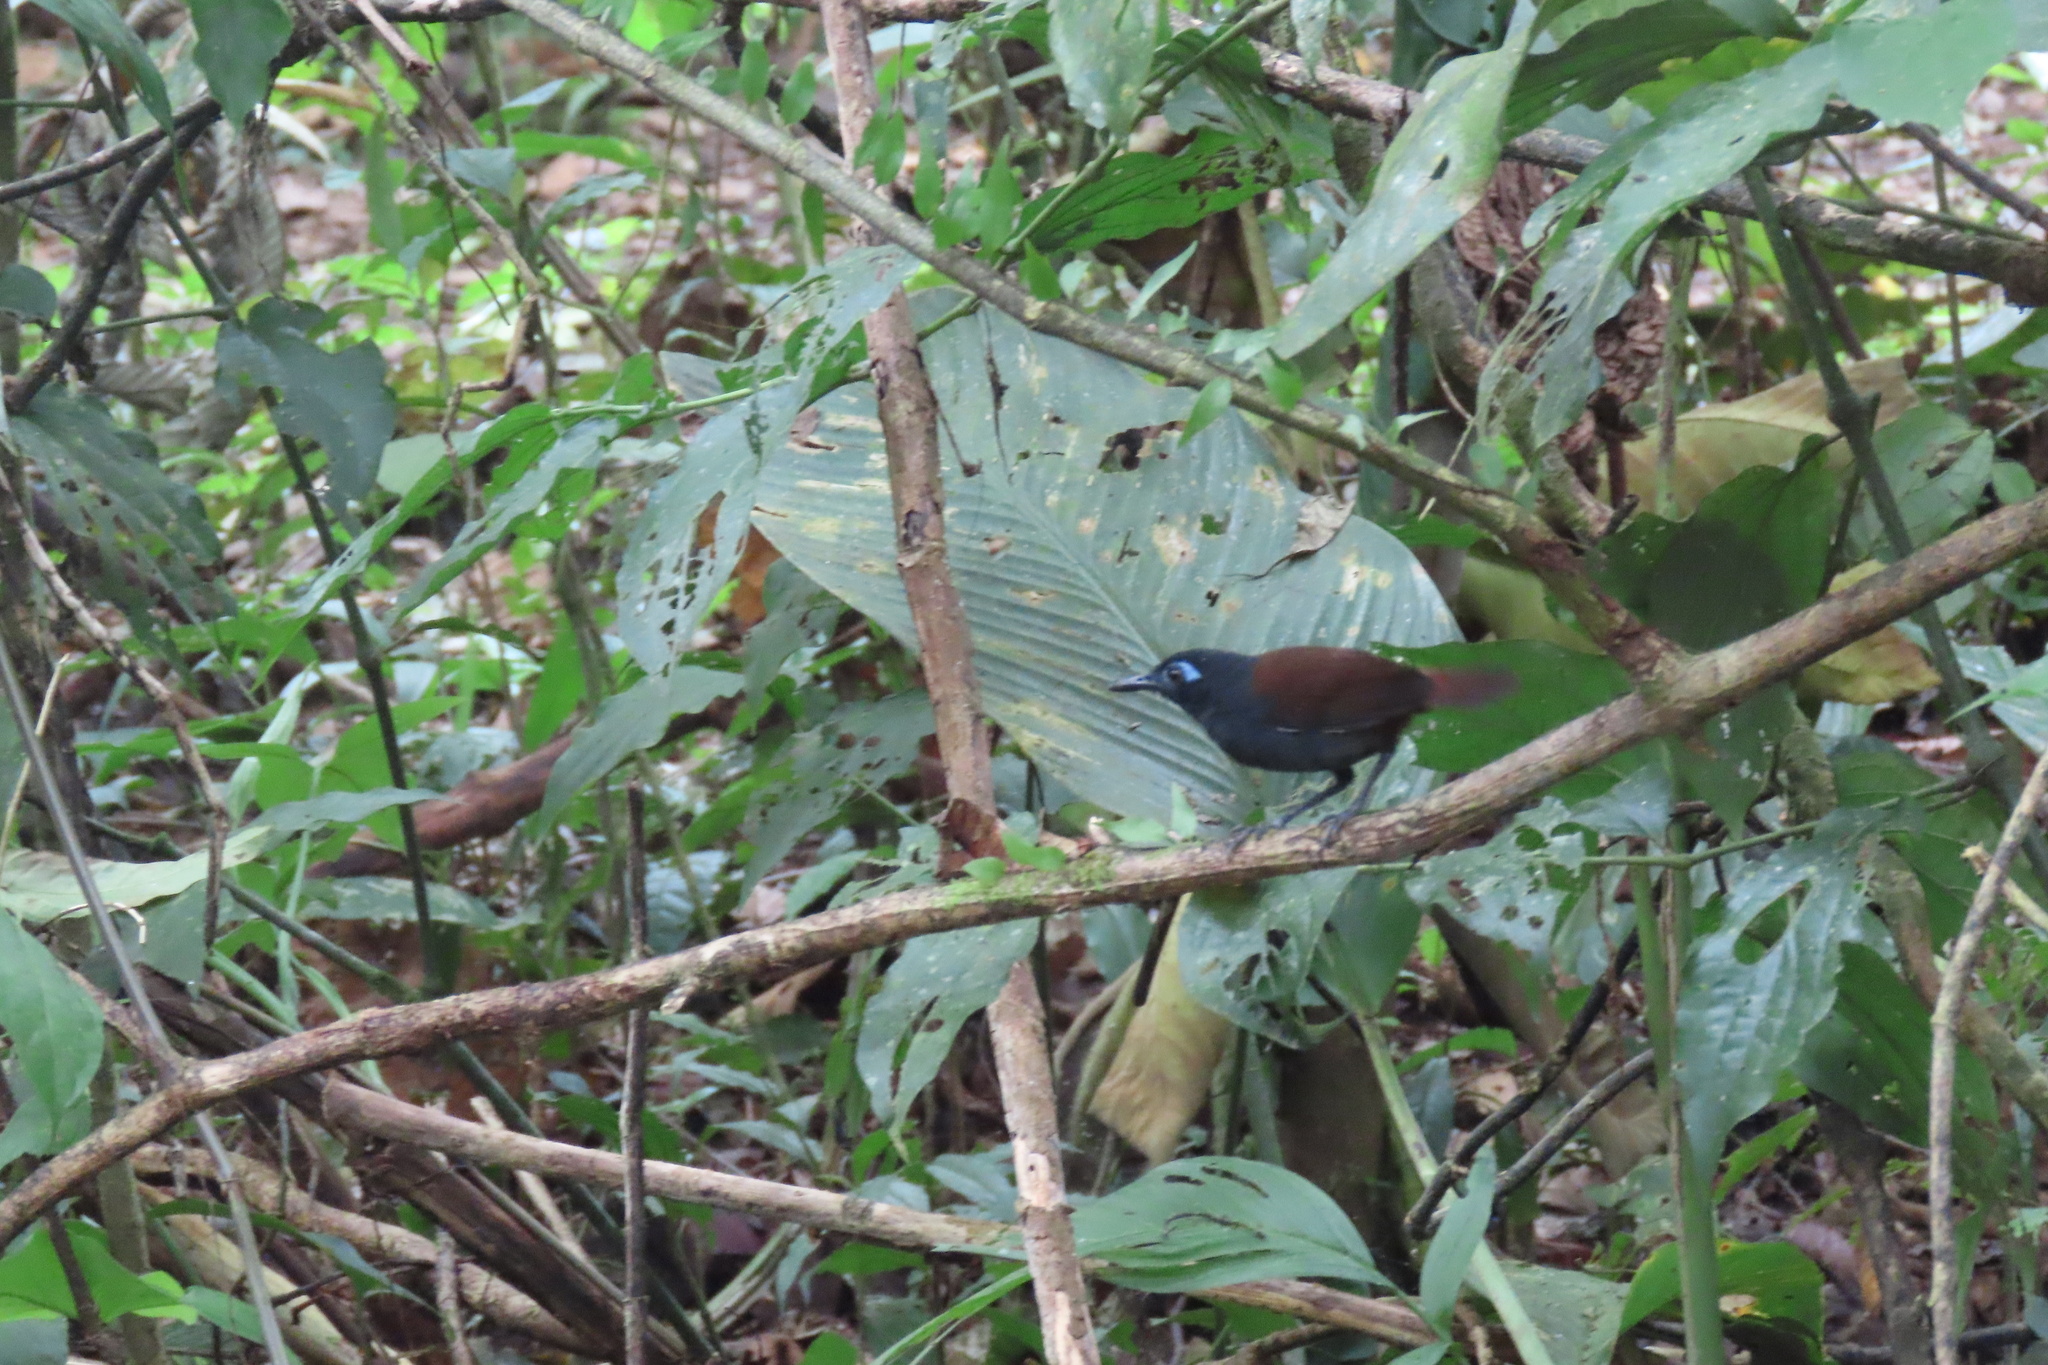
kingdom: Animalia
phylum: Chordata
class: Aves
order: Passeriformes
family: Thamnophilidae
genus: Myrmeciza
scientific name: Myrmeciza exsul
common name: Chestnut-backed antbird
